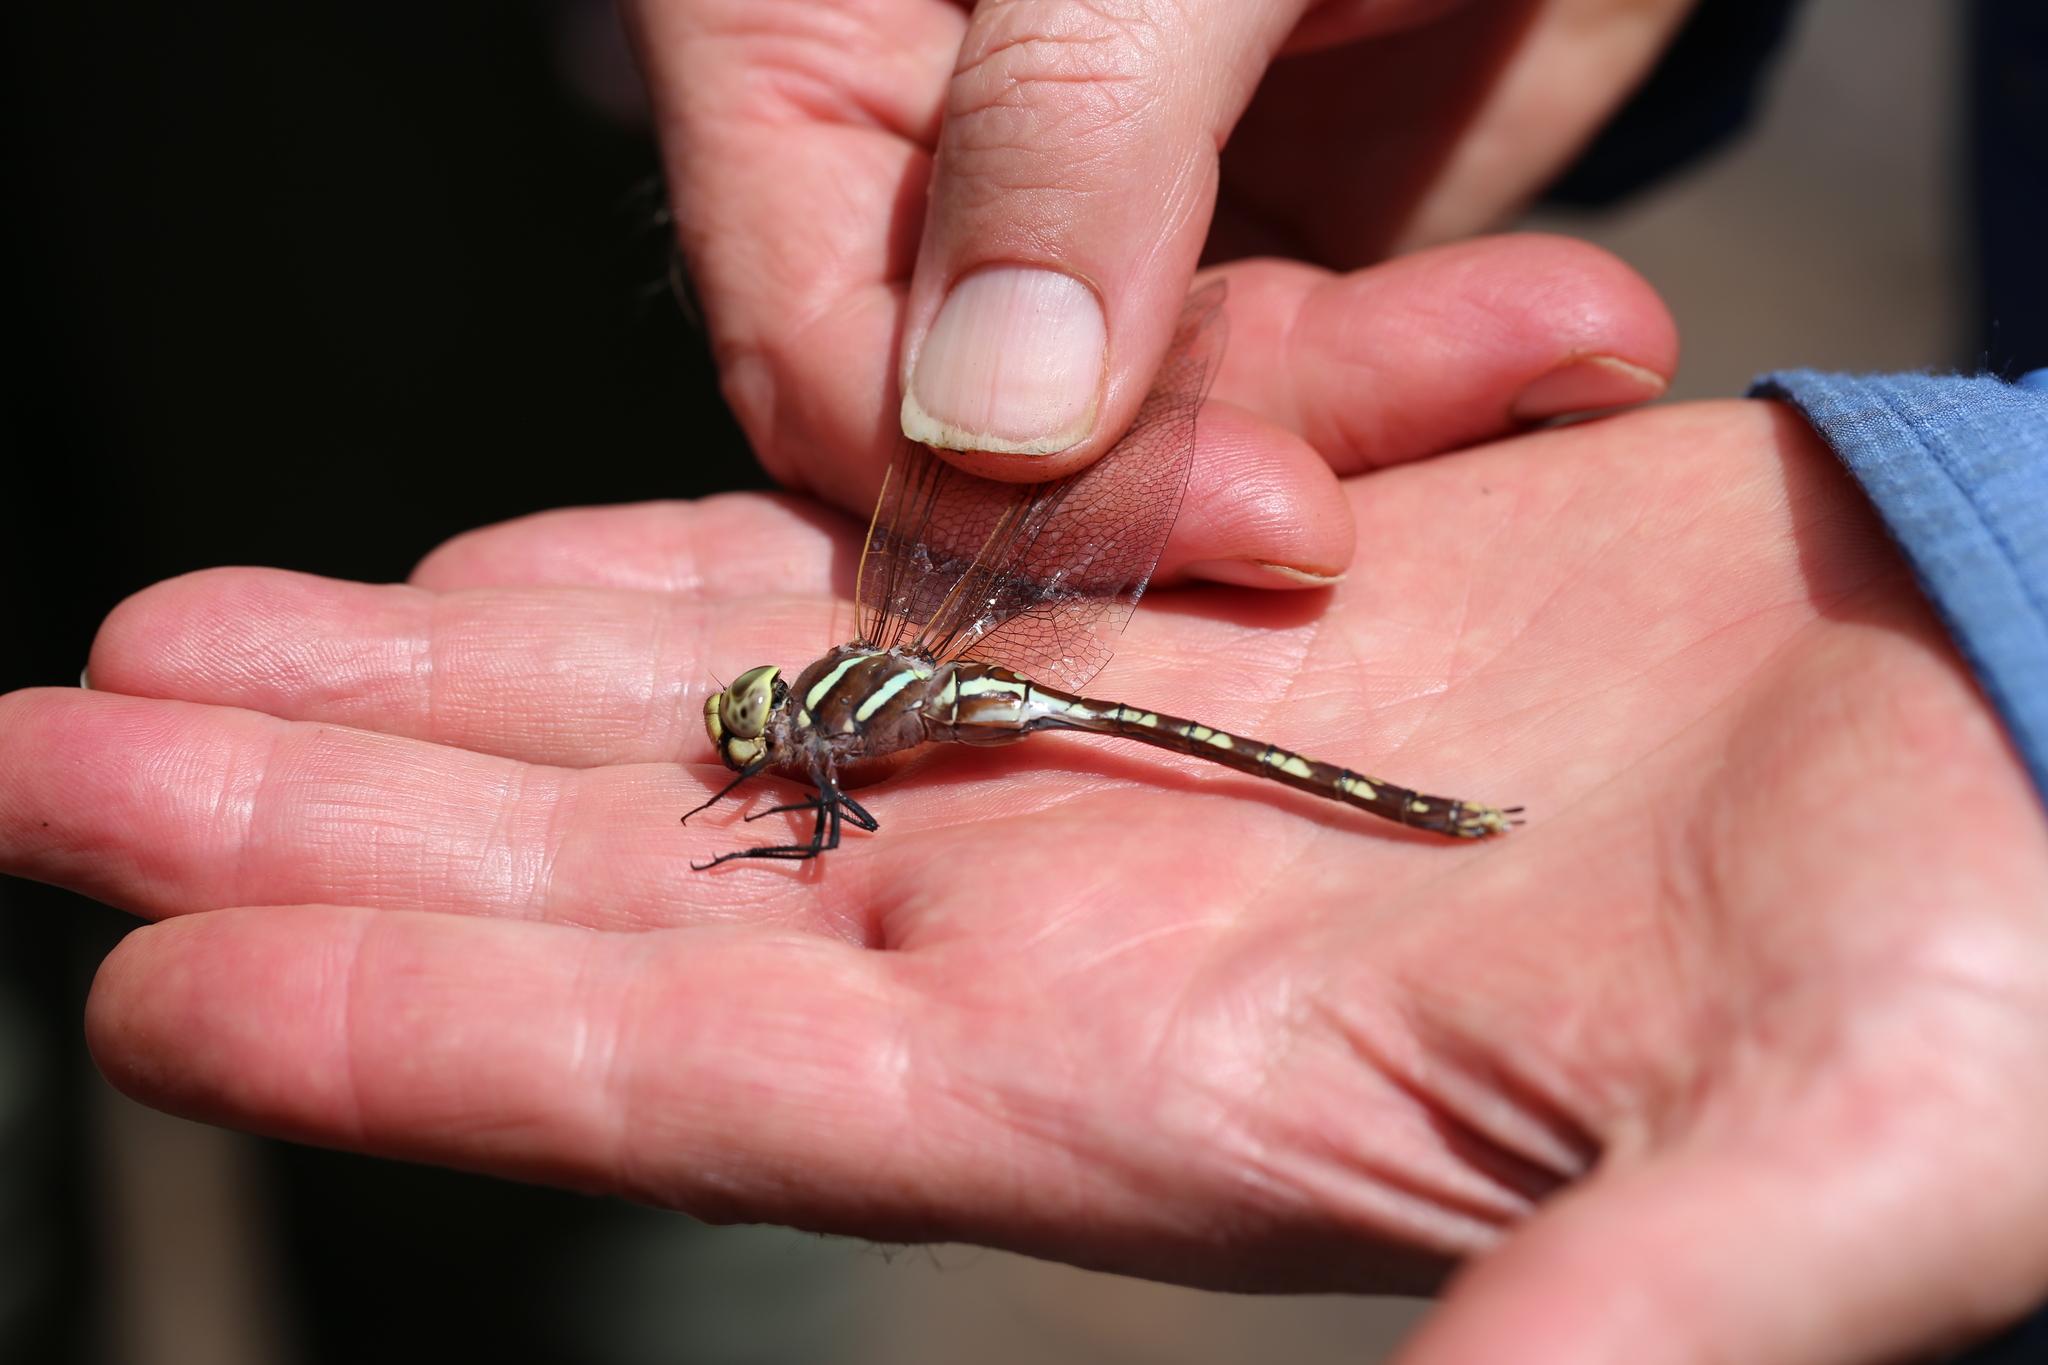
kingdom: Animalia
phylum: Arthropoda
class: Insecta
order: Odonata
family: Aeshnidae
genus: Aeshna
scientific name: Aeshna brevistyla
